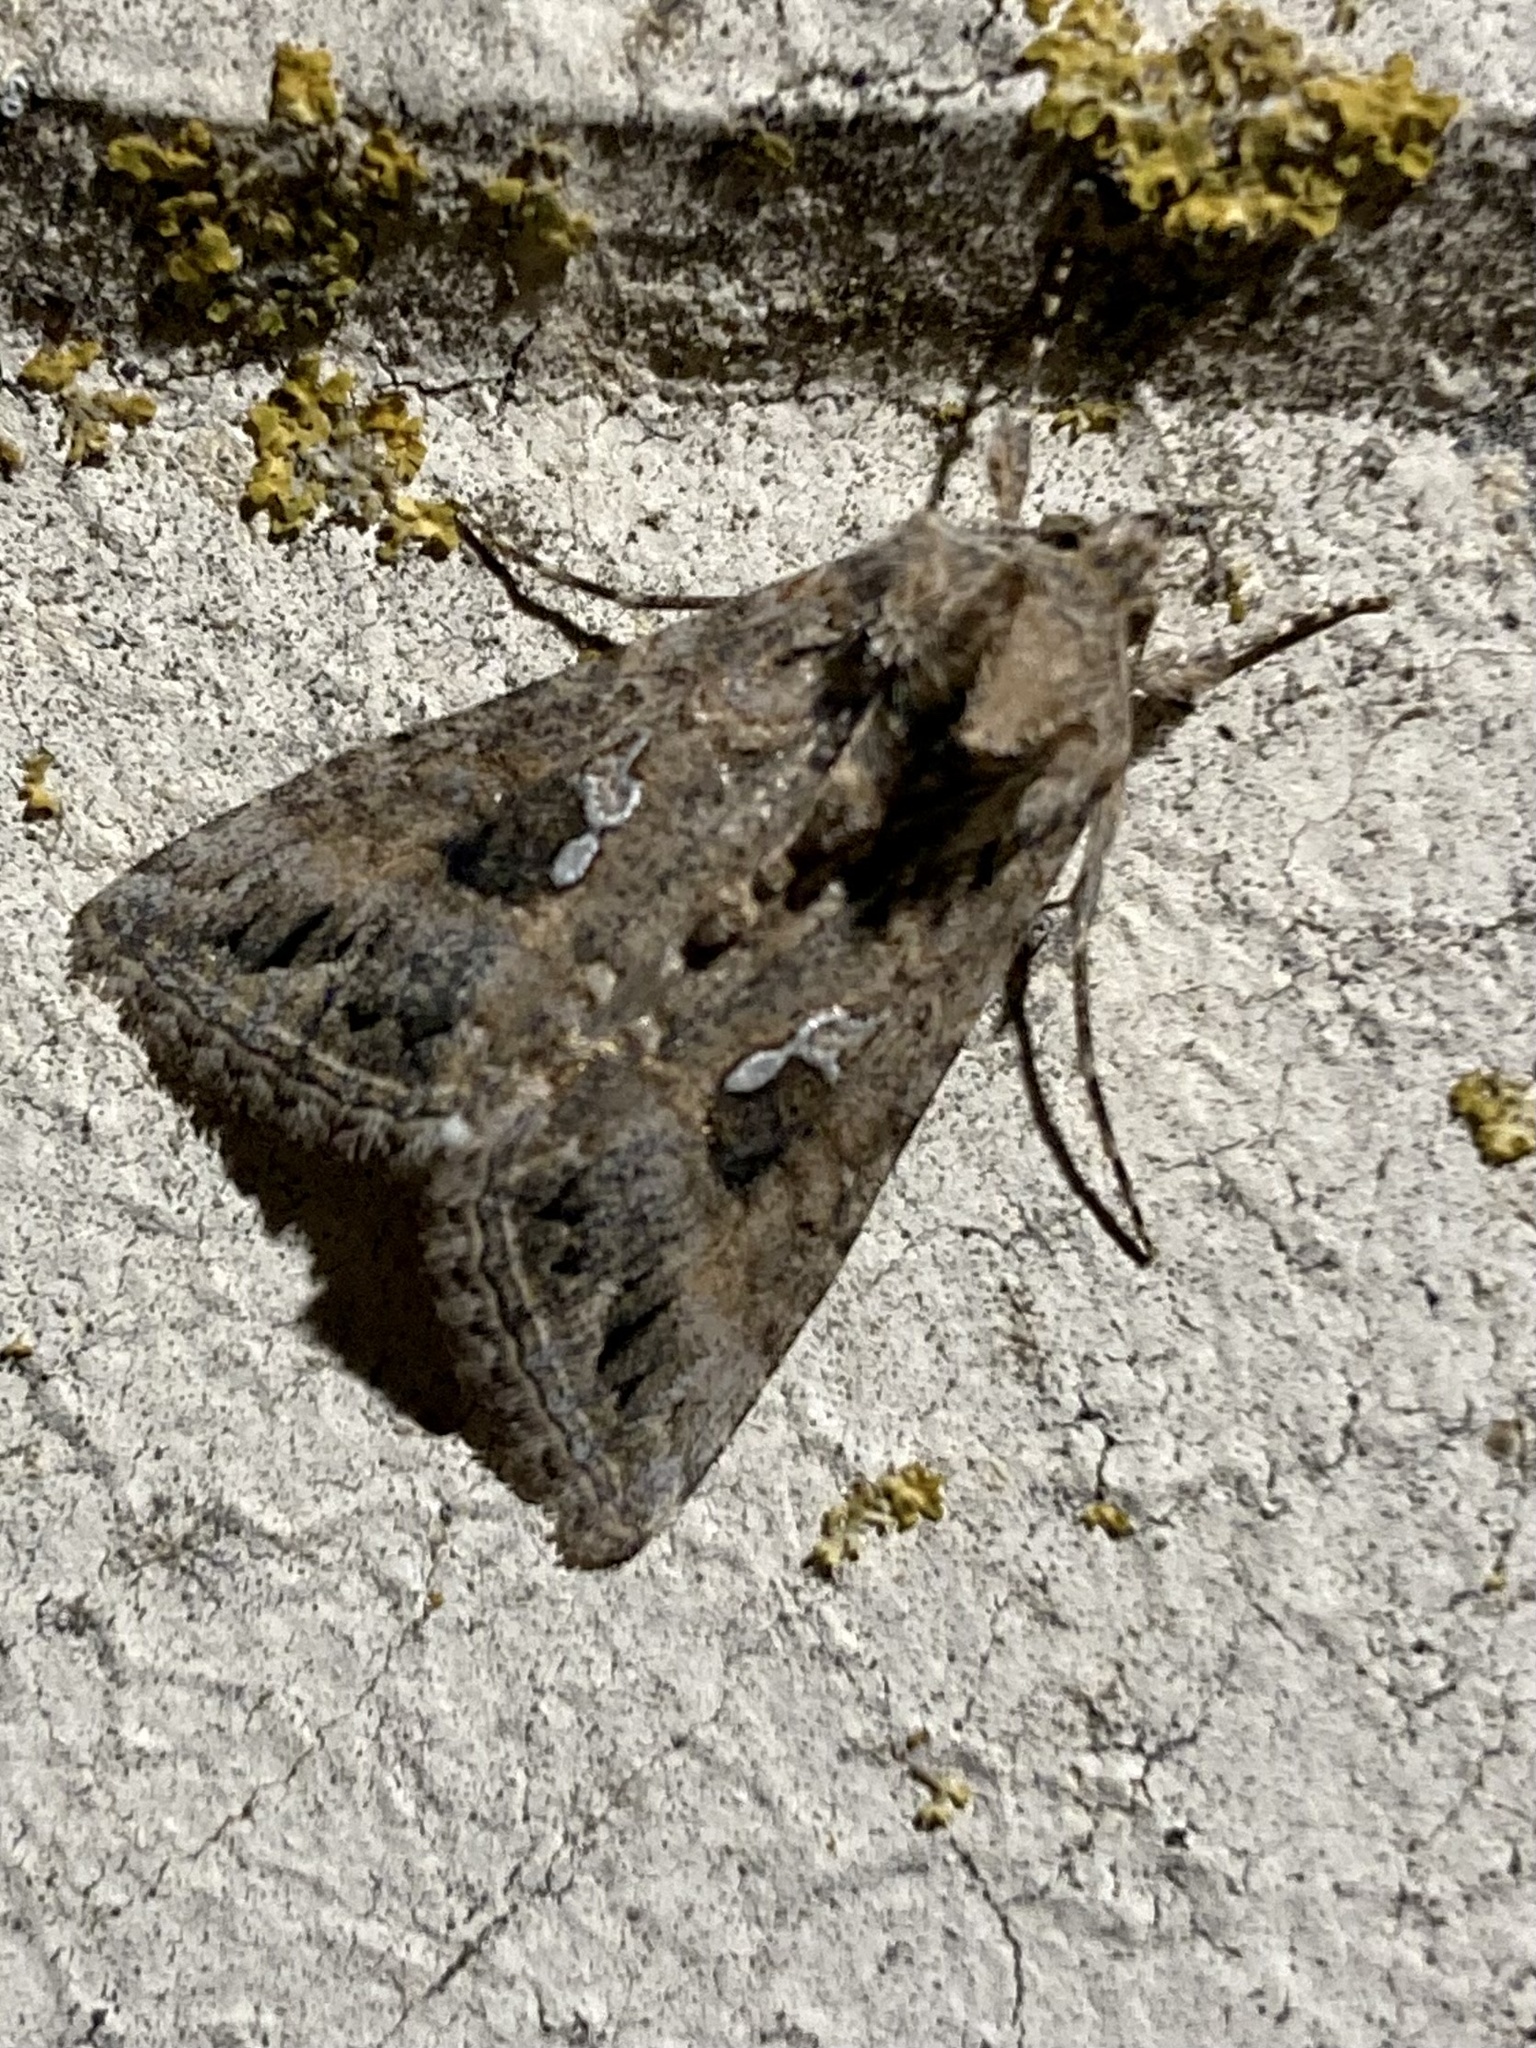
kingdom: Animalia
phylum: Arthropoda
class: Insecta
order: Lepidoptera
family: Noctuidae
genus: Trichoplusia
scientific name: Trichoplusia ni
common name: Ni moth
